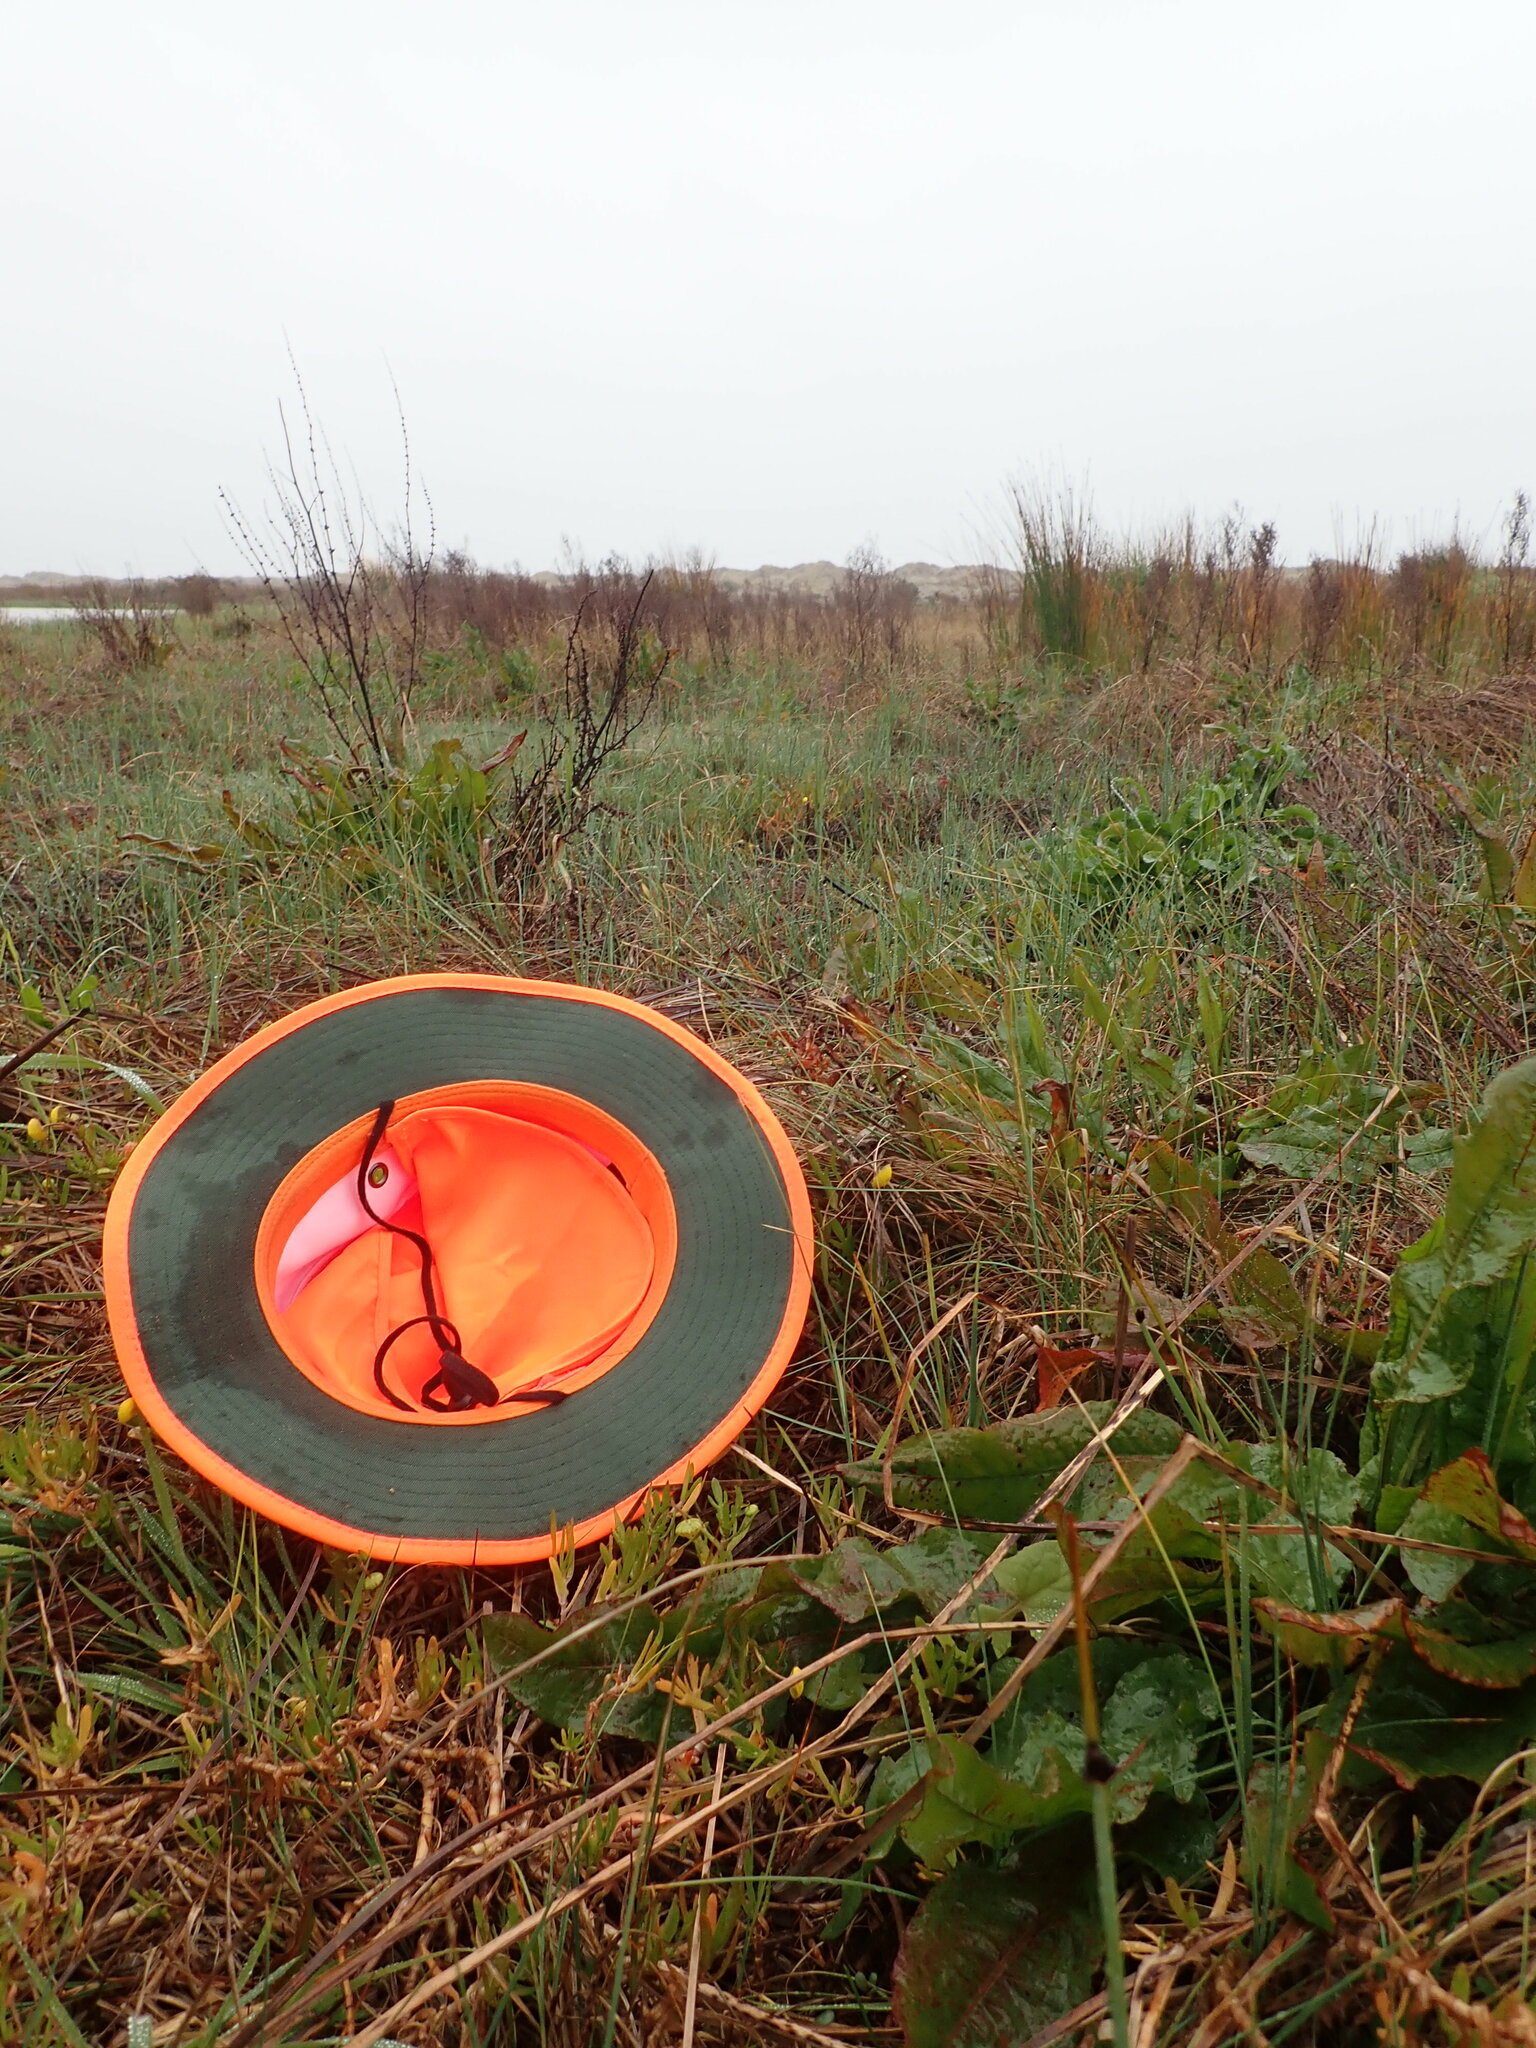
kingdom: Plantae
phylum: Tracheophyta
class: Magnoliopsida
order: Asterales
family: Asteraceae
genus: Cotula
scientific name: Cotula coronopifolia
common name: Buttonweed
